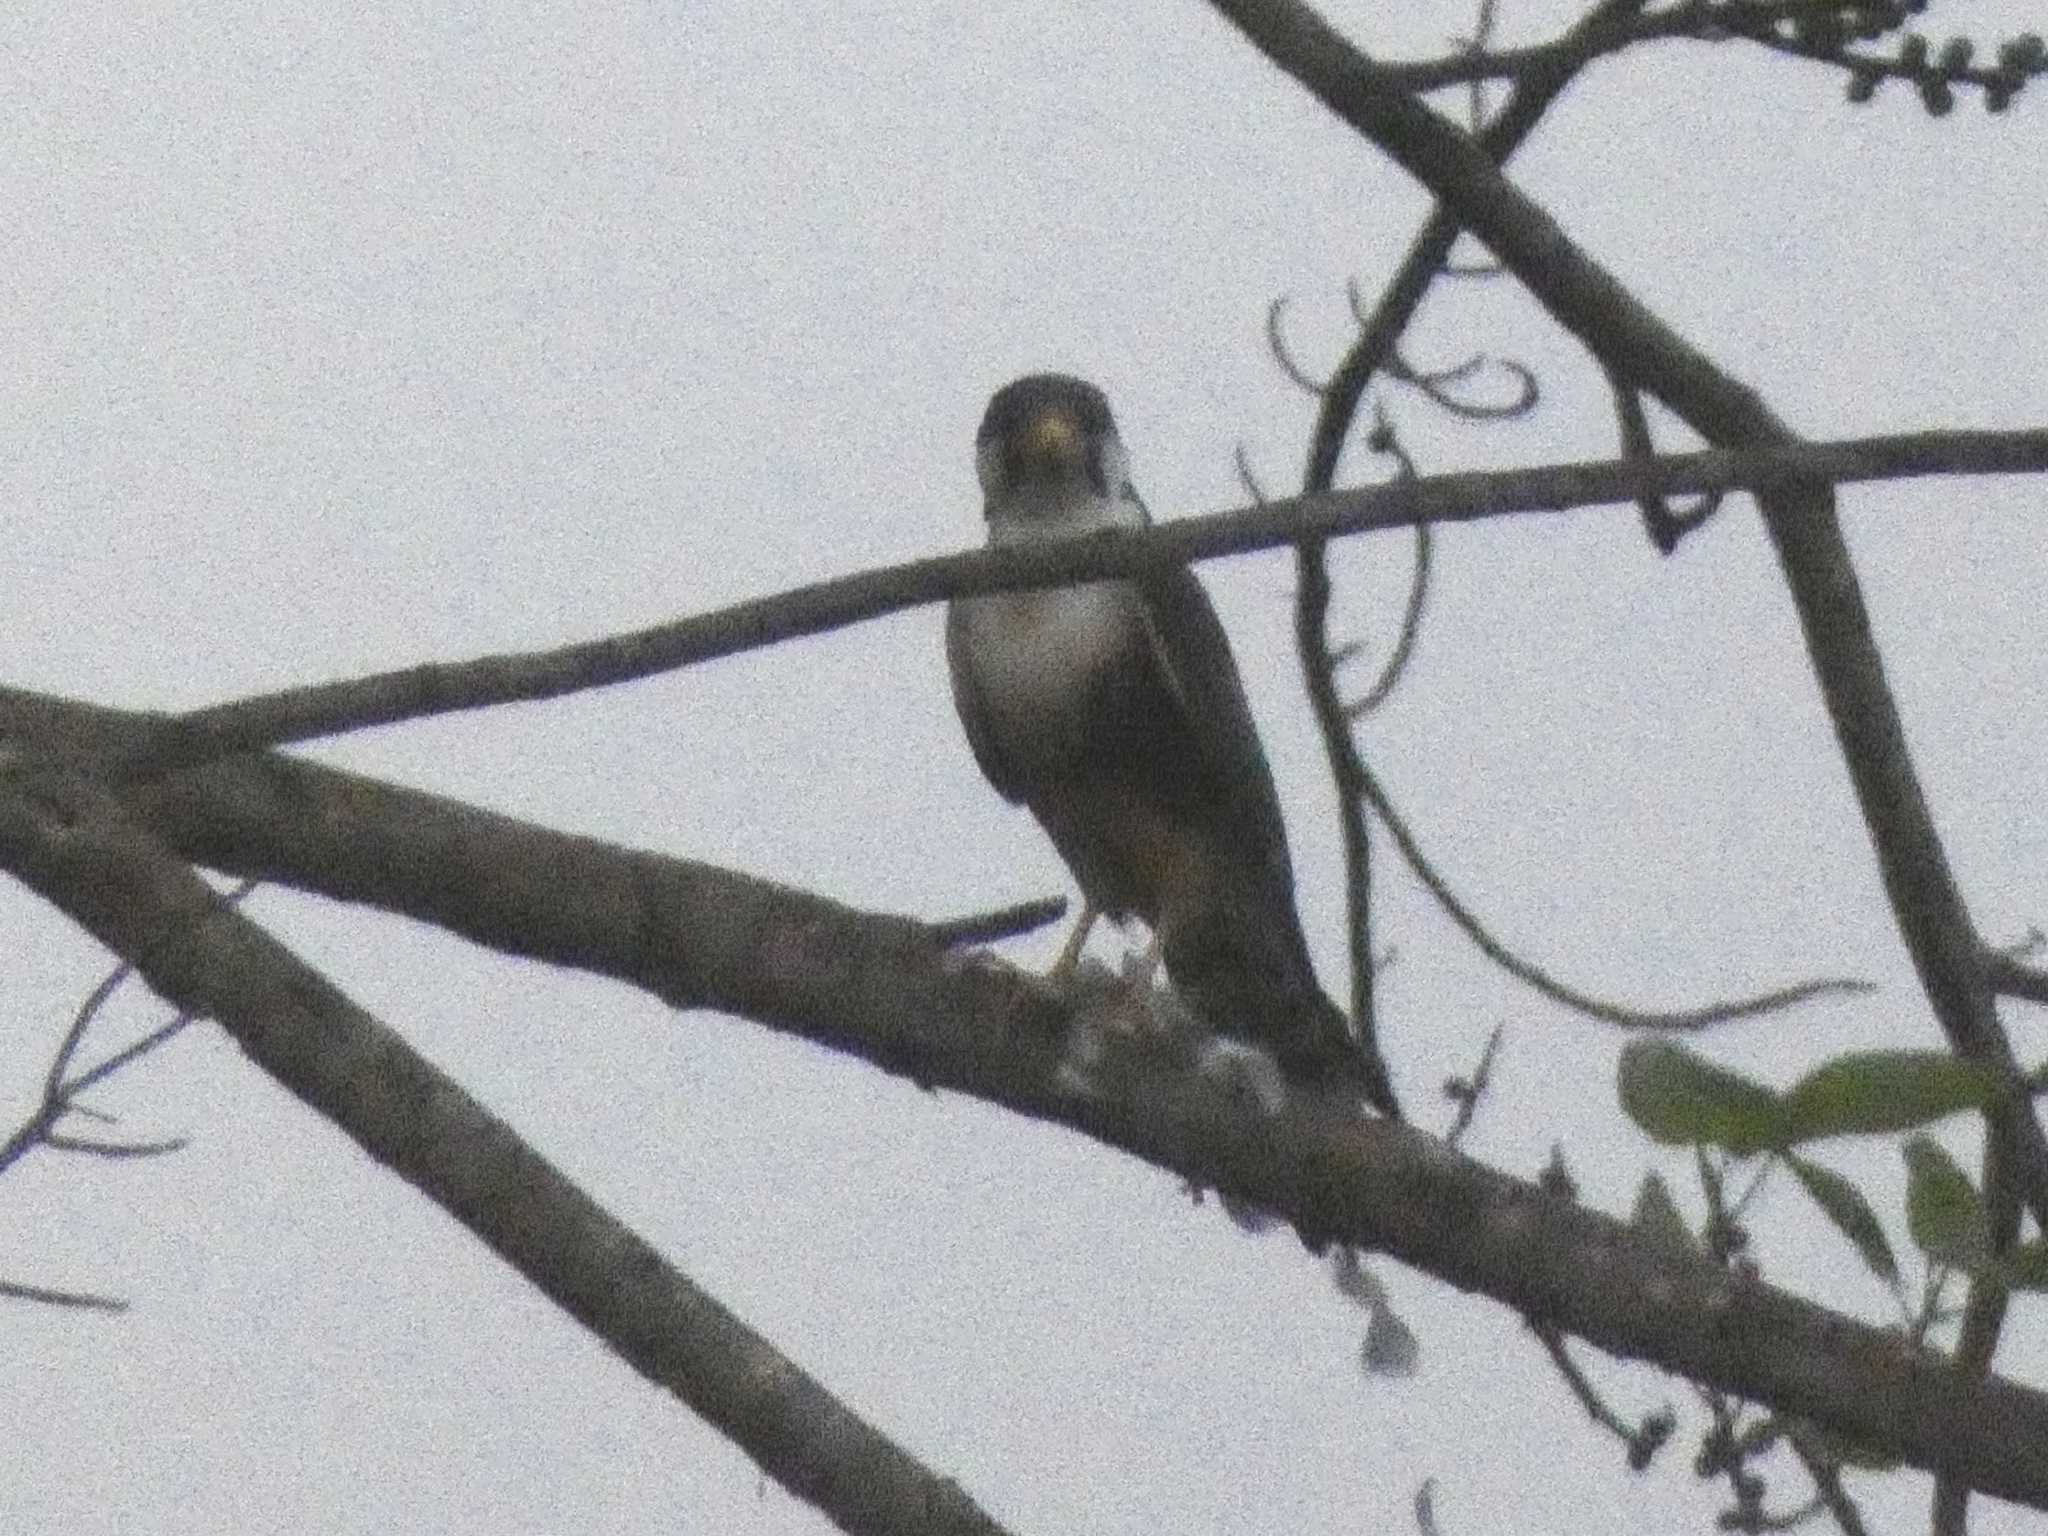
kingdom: Animalia
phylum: Chordata
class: Aves
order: Falconiformes
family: Falconidae
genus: Falco
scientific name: Falco femoralis
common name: Aplomado falcon
